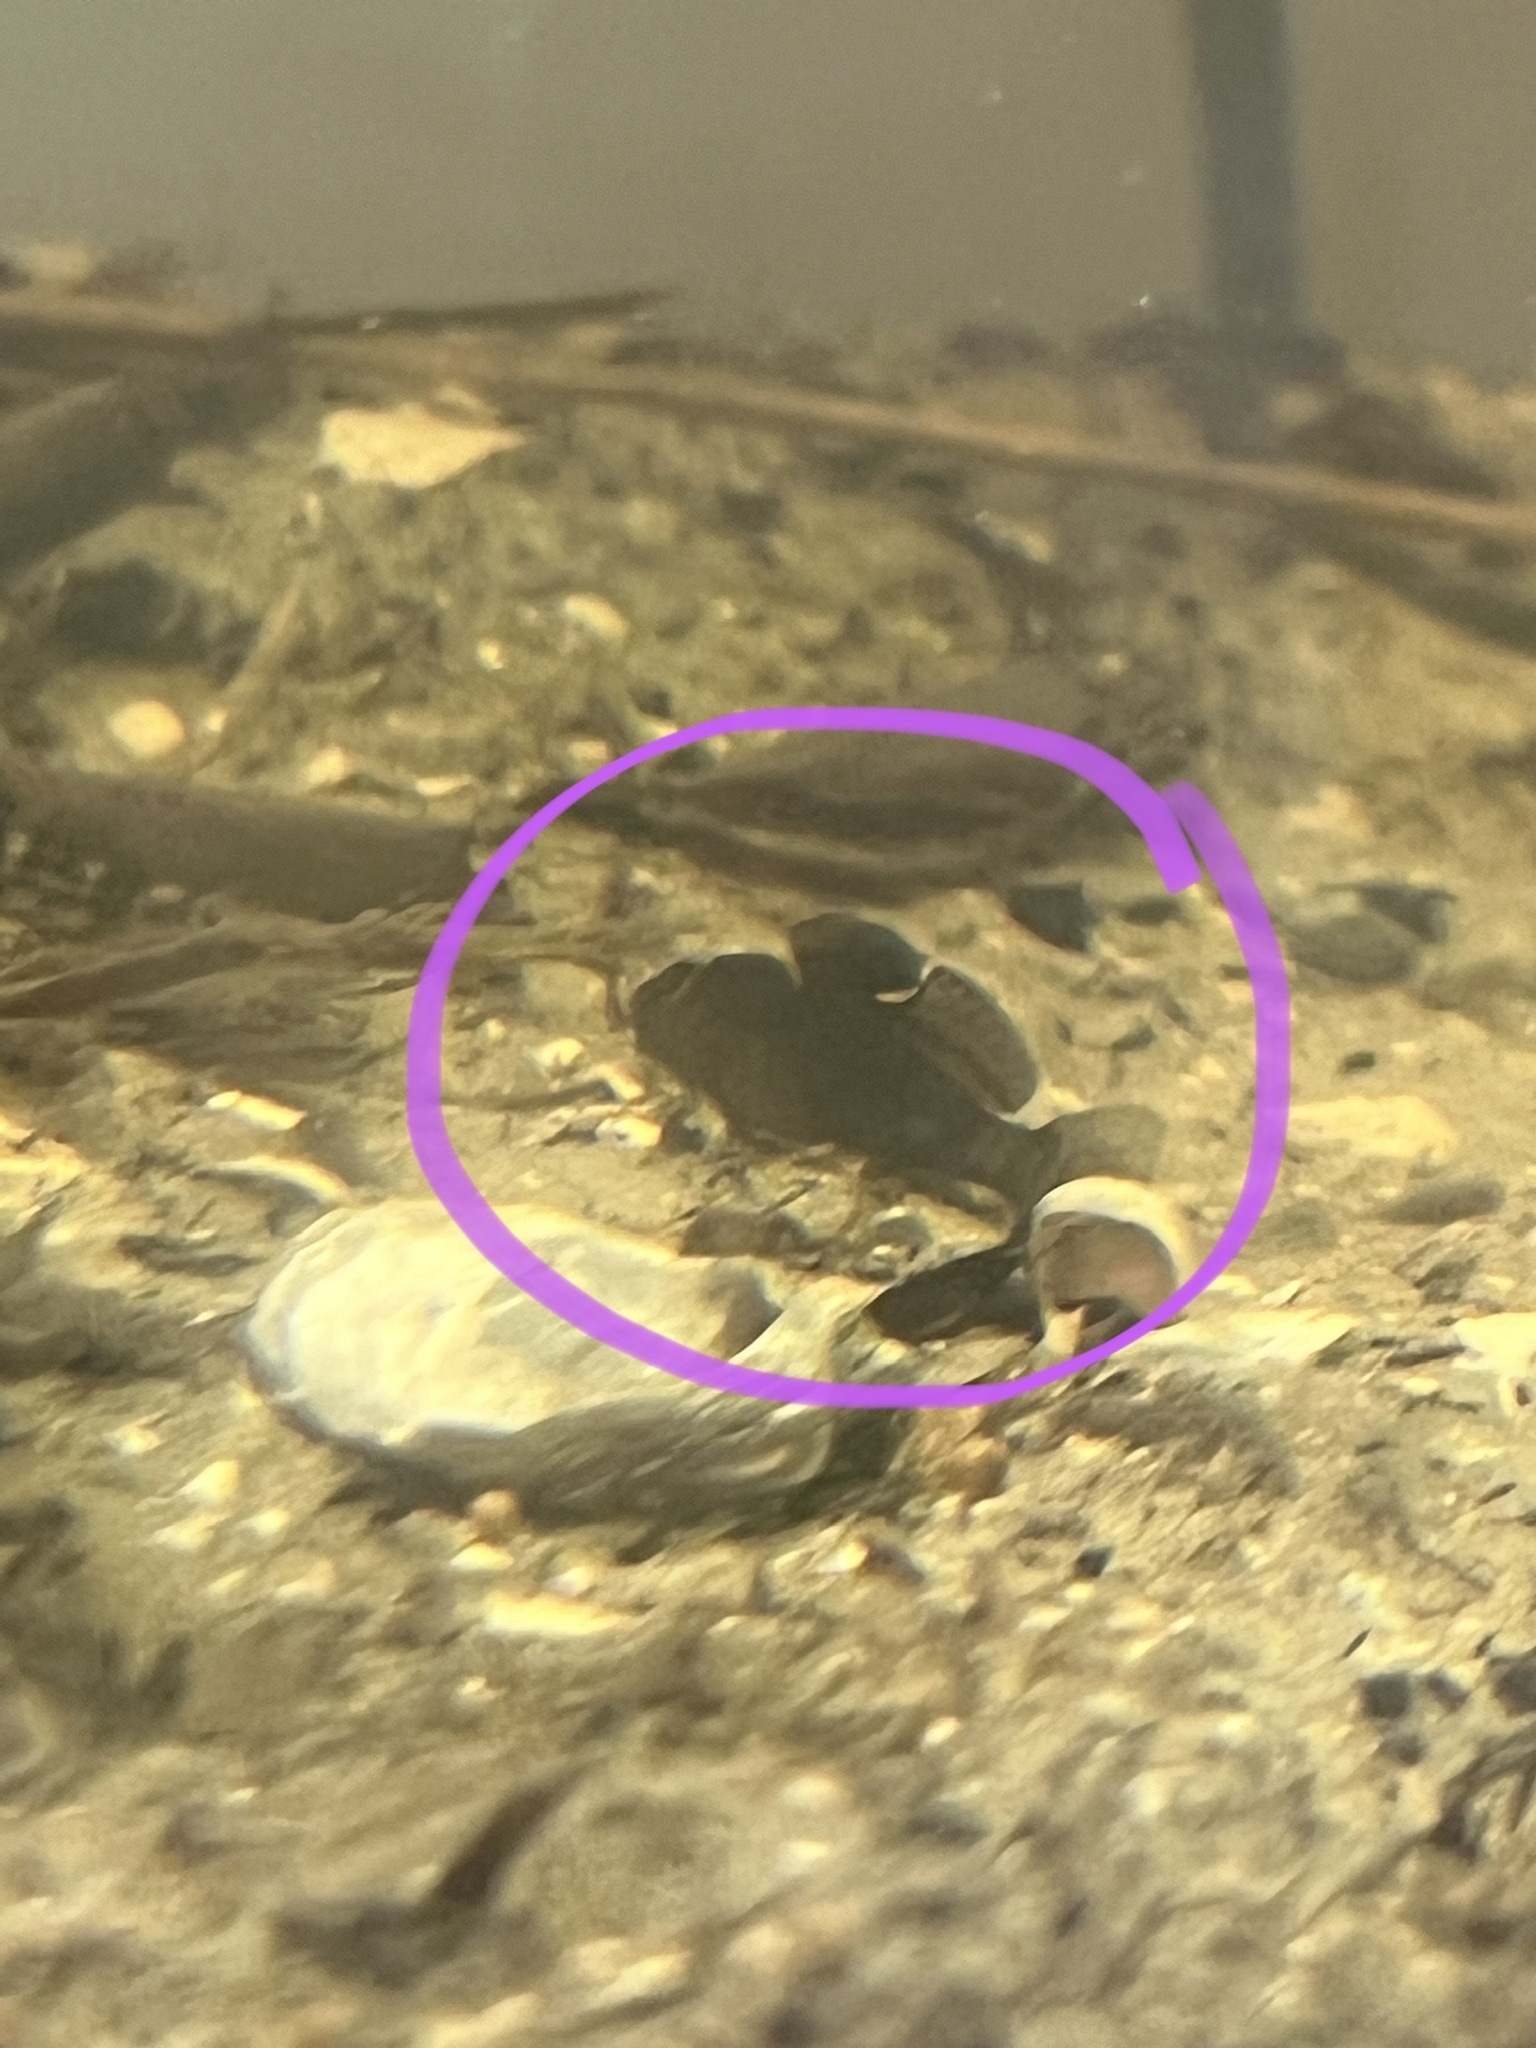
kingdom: Animalia
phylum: Chordata
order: Perciformes
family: Gobiidae
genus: Lophogobius
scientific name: Lophogobius cyprinoides
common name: Crested goby
